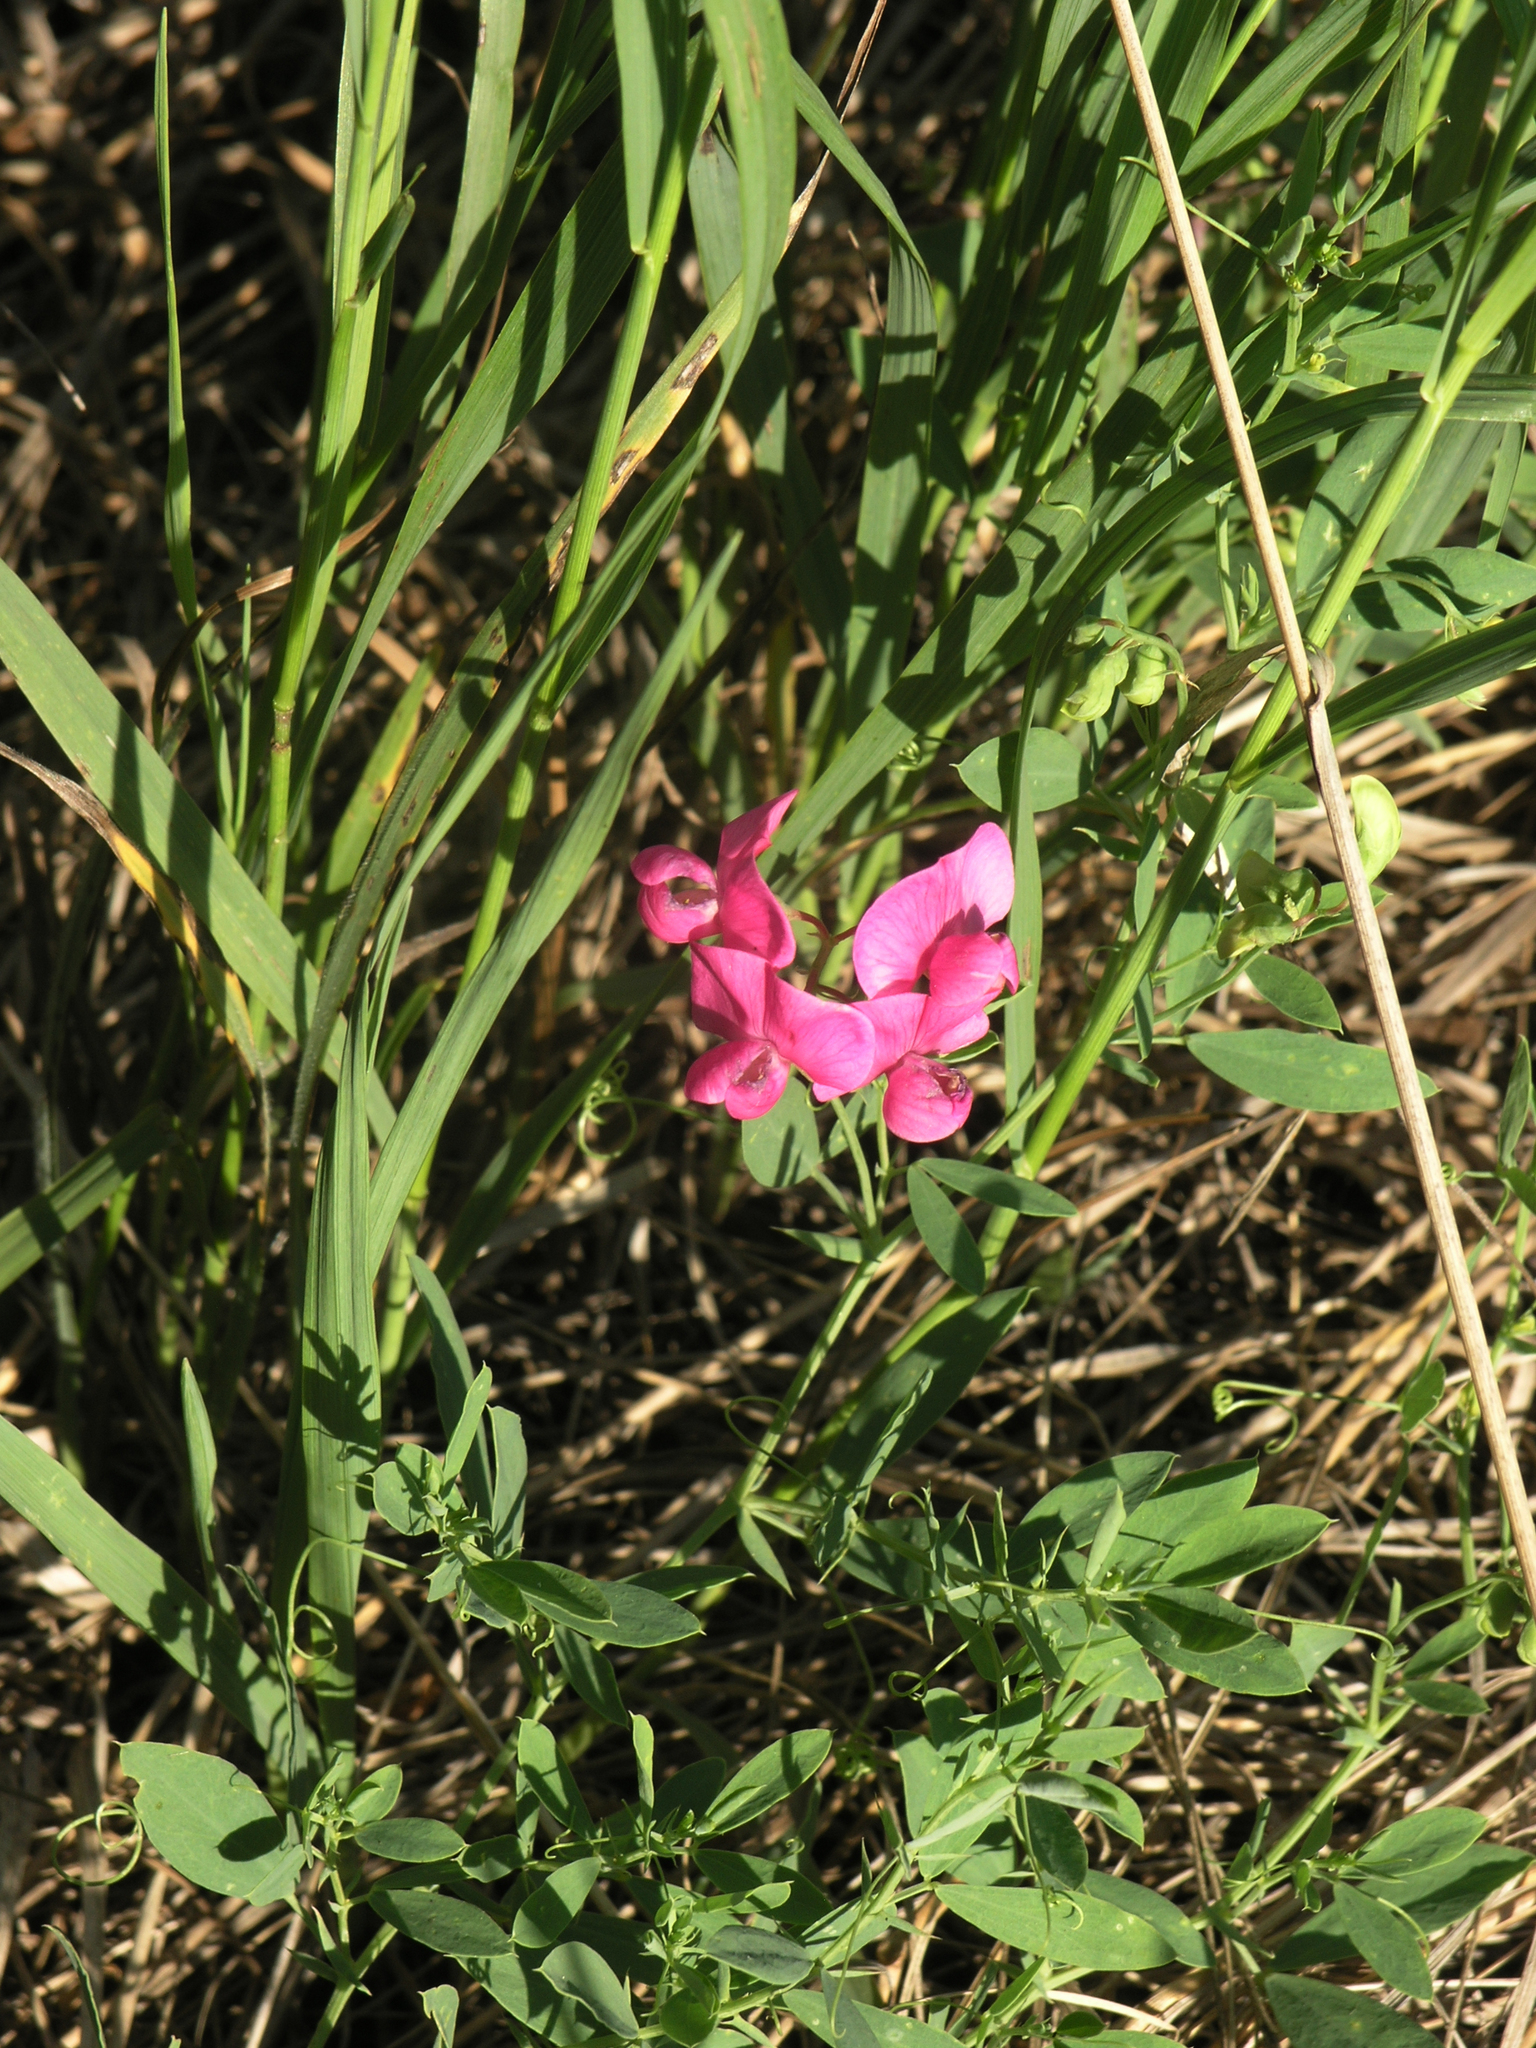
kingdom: Plantae
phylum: Tracheophyta
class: Magnoliopsida
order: Fabales
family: Fabaceae
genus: Lathyrus
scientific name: Lathyrus tuberosus
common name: Tuberous pea
